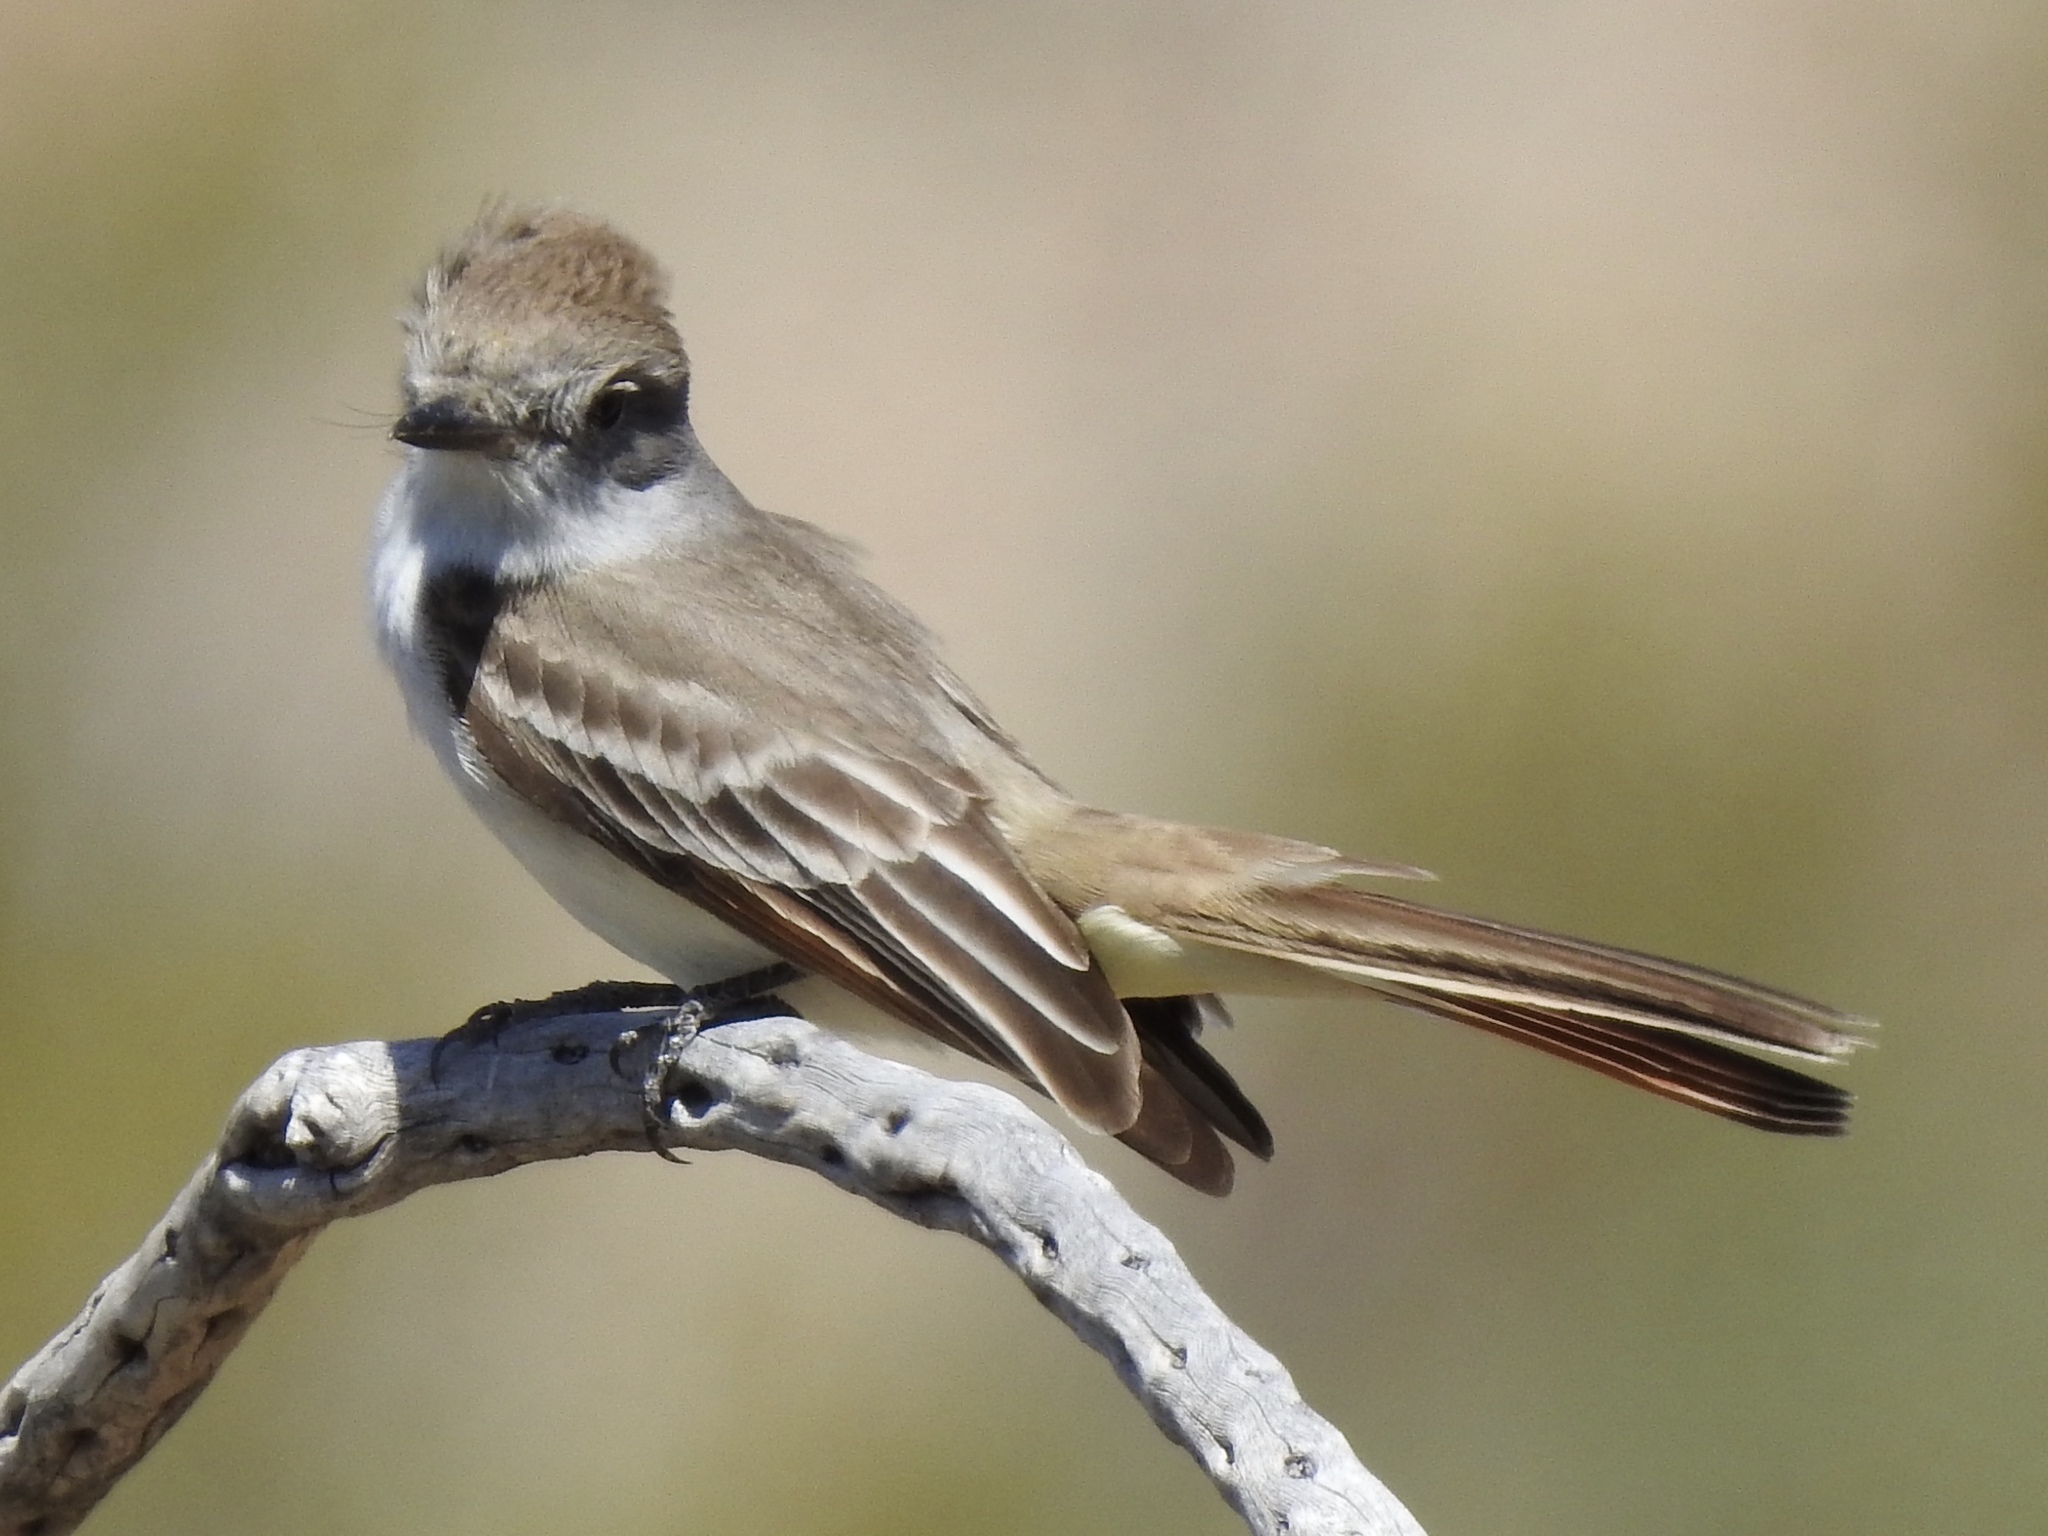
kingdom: Animalia
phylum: Chordata
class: Aves
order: Passeriformes
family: Tyrannidae
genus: Myiarchus
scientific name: Myiarchus cinerascens
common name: Ash-throated flycatcher
